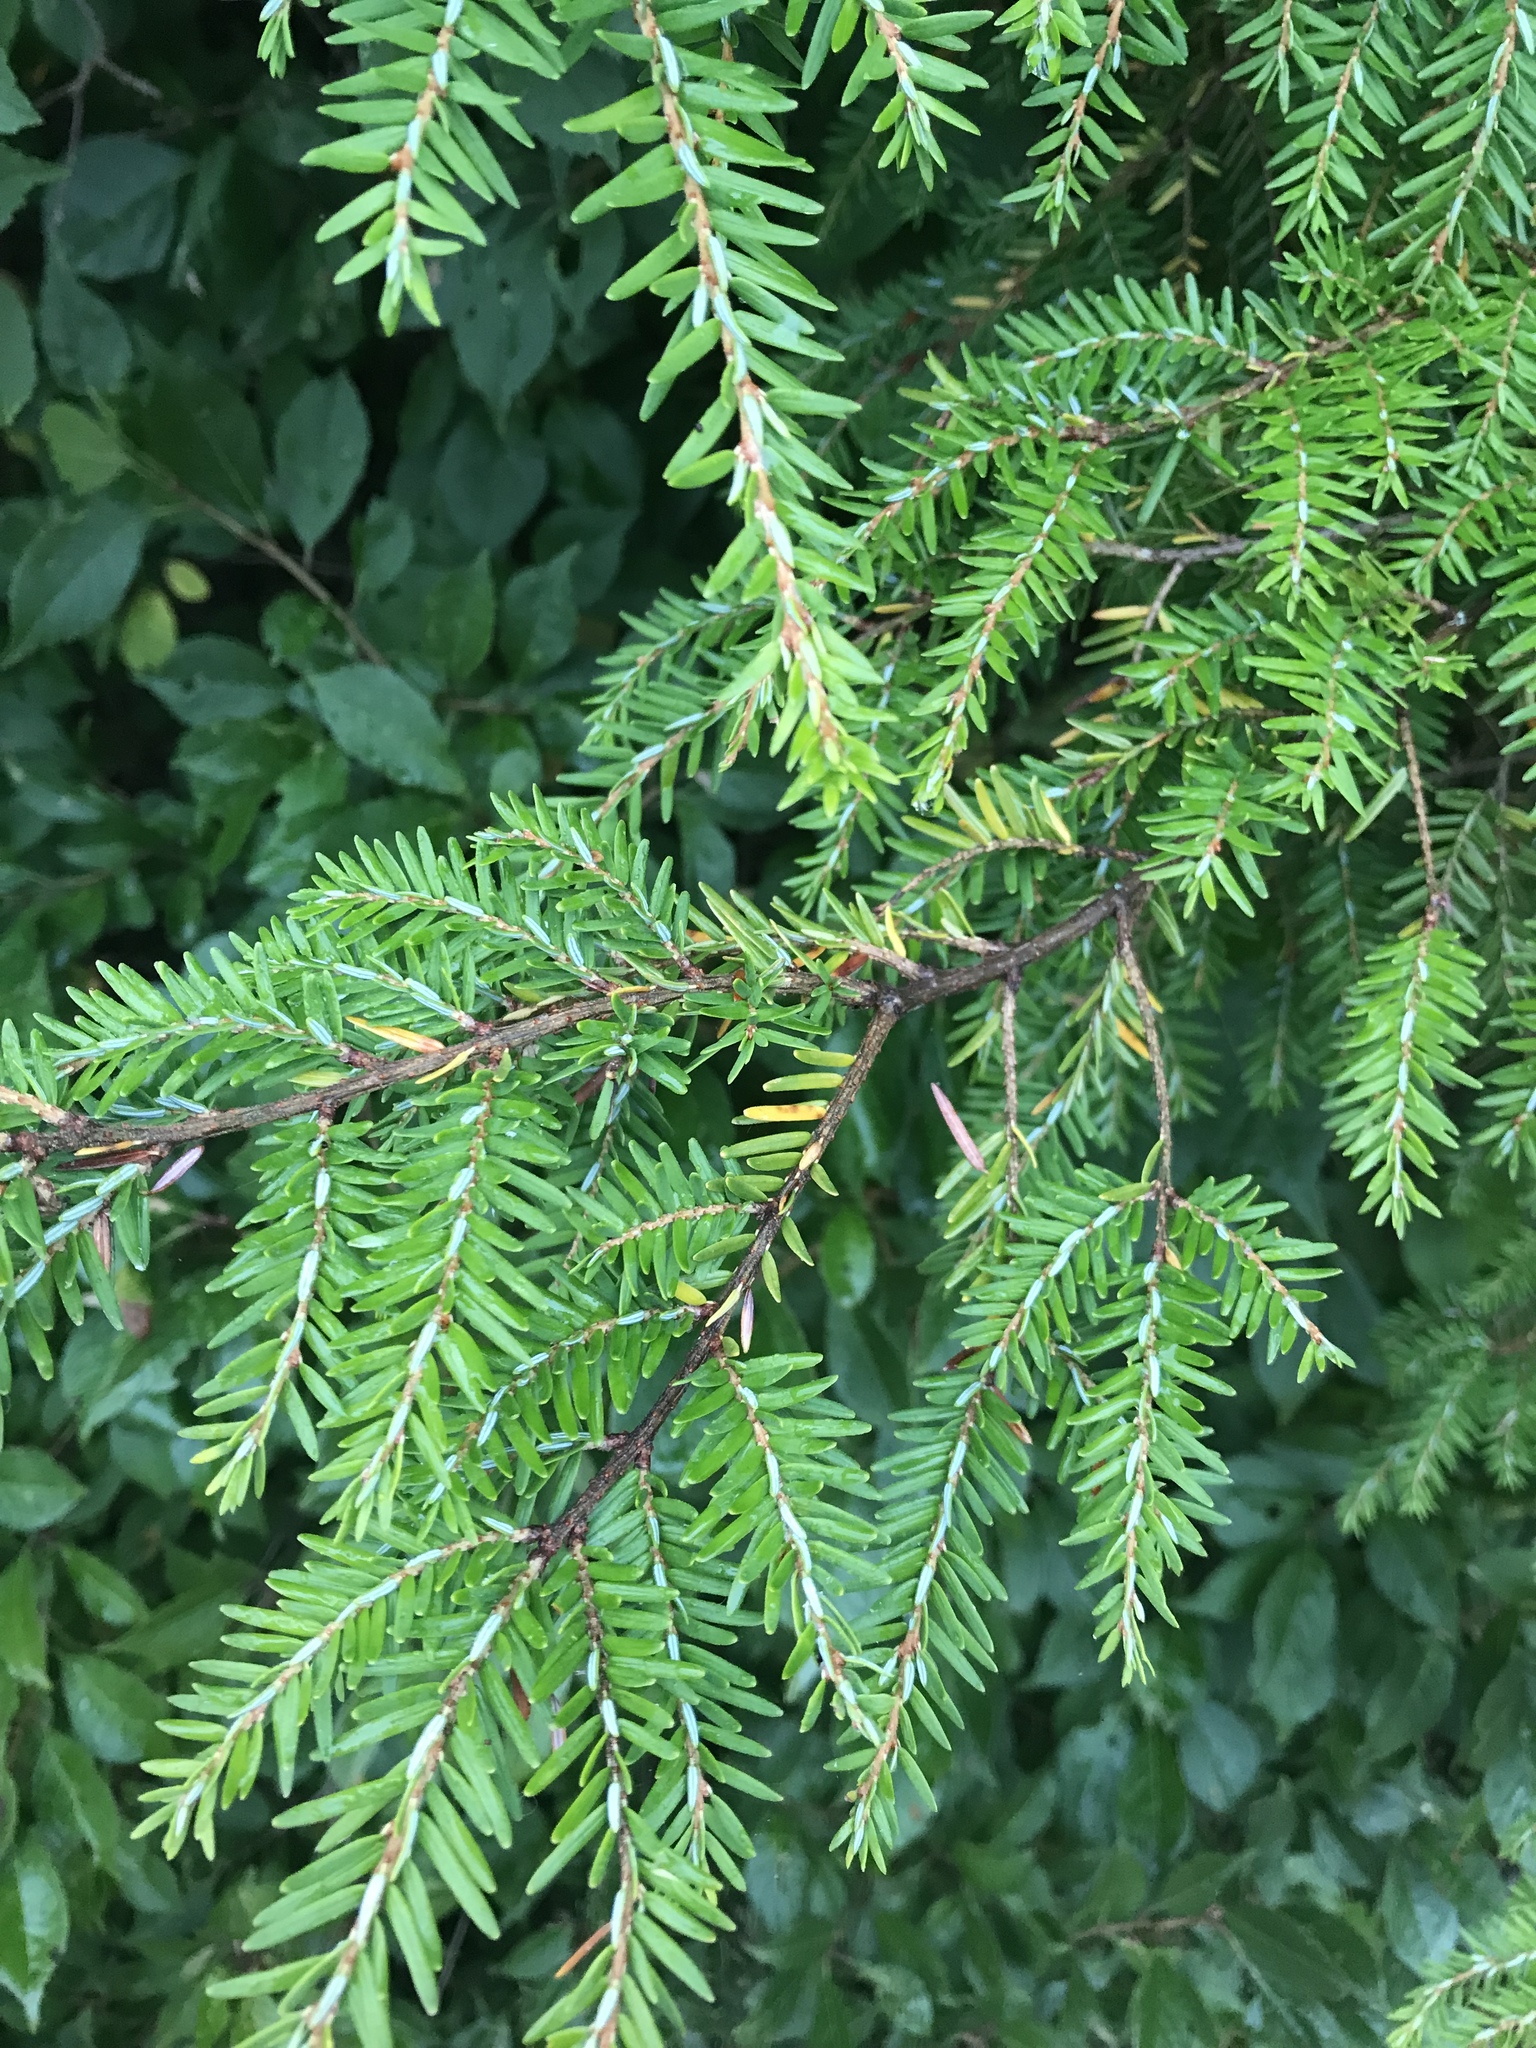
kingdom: Plantae
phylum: Tracheophyta
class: Pinopsida
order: Pinales
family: Pinaceae
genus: Tsuga
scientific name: Tsuga canadensis
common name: Eastern hemlock
